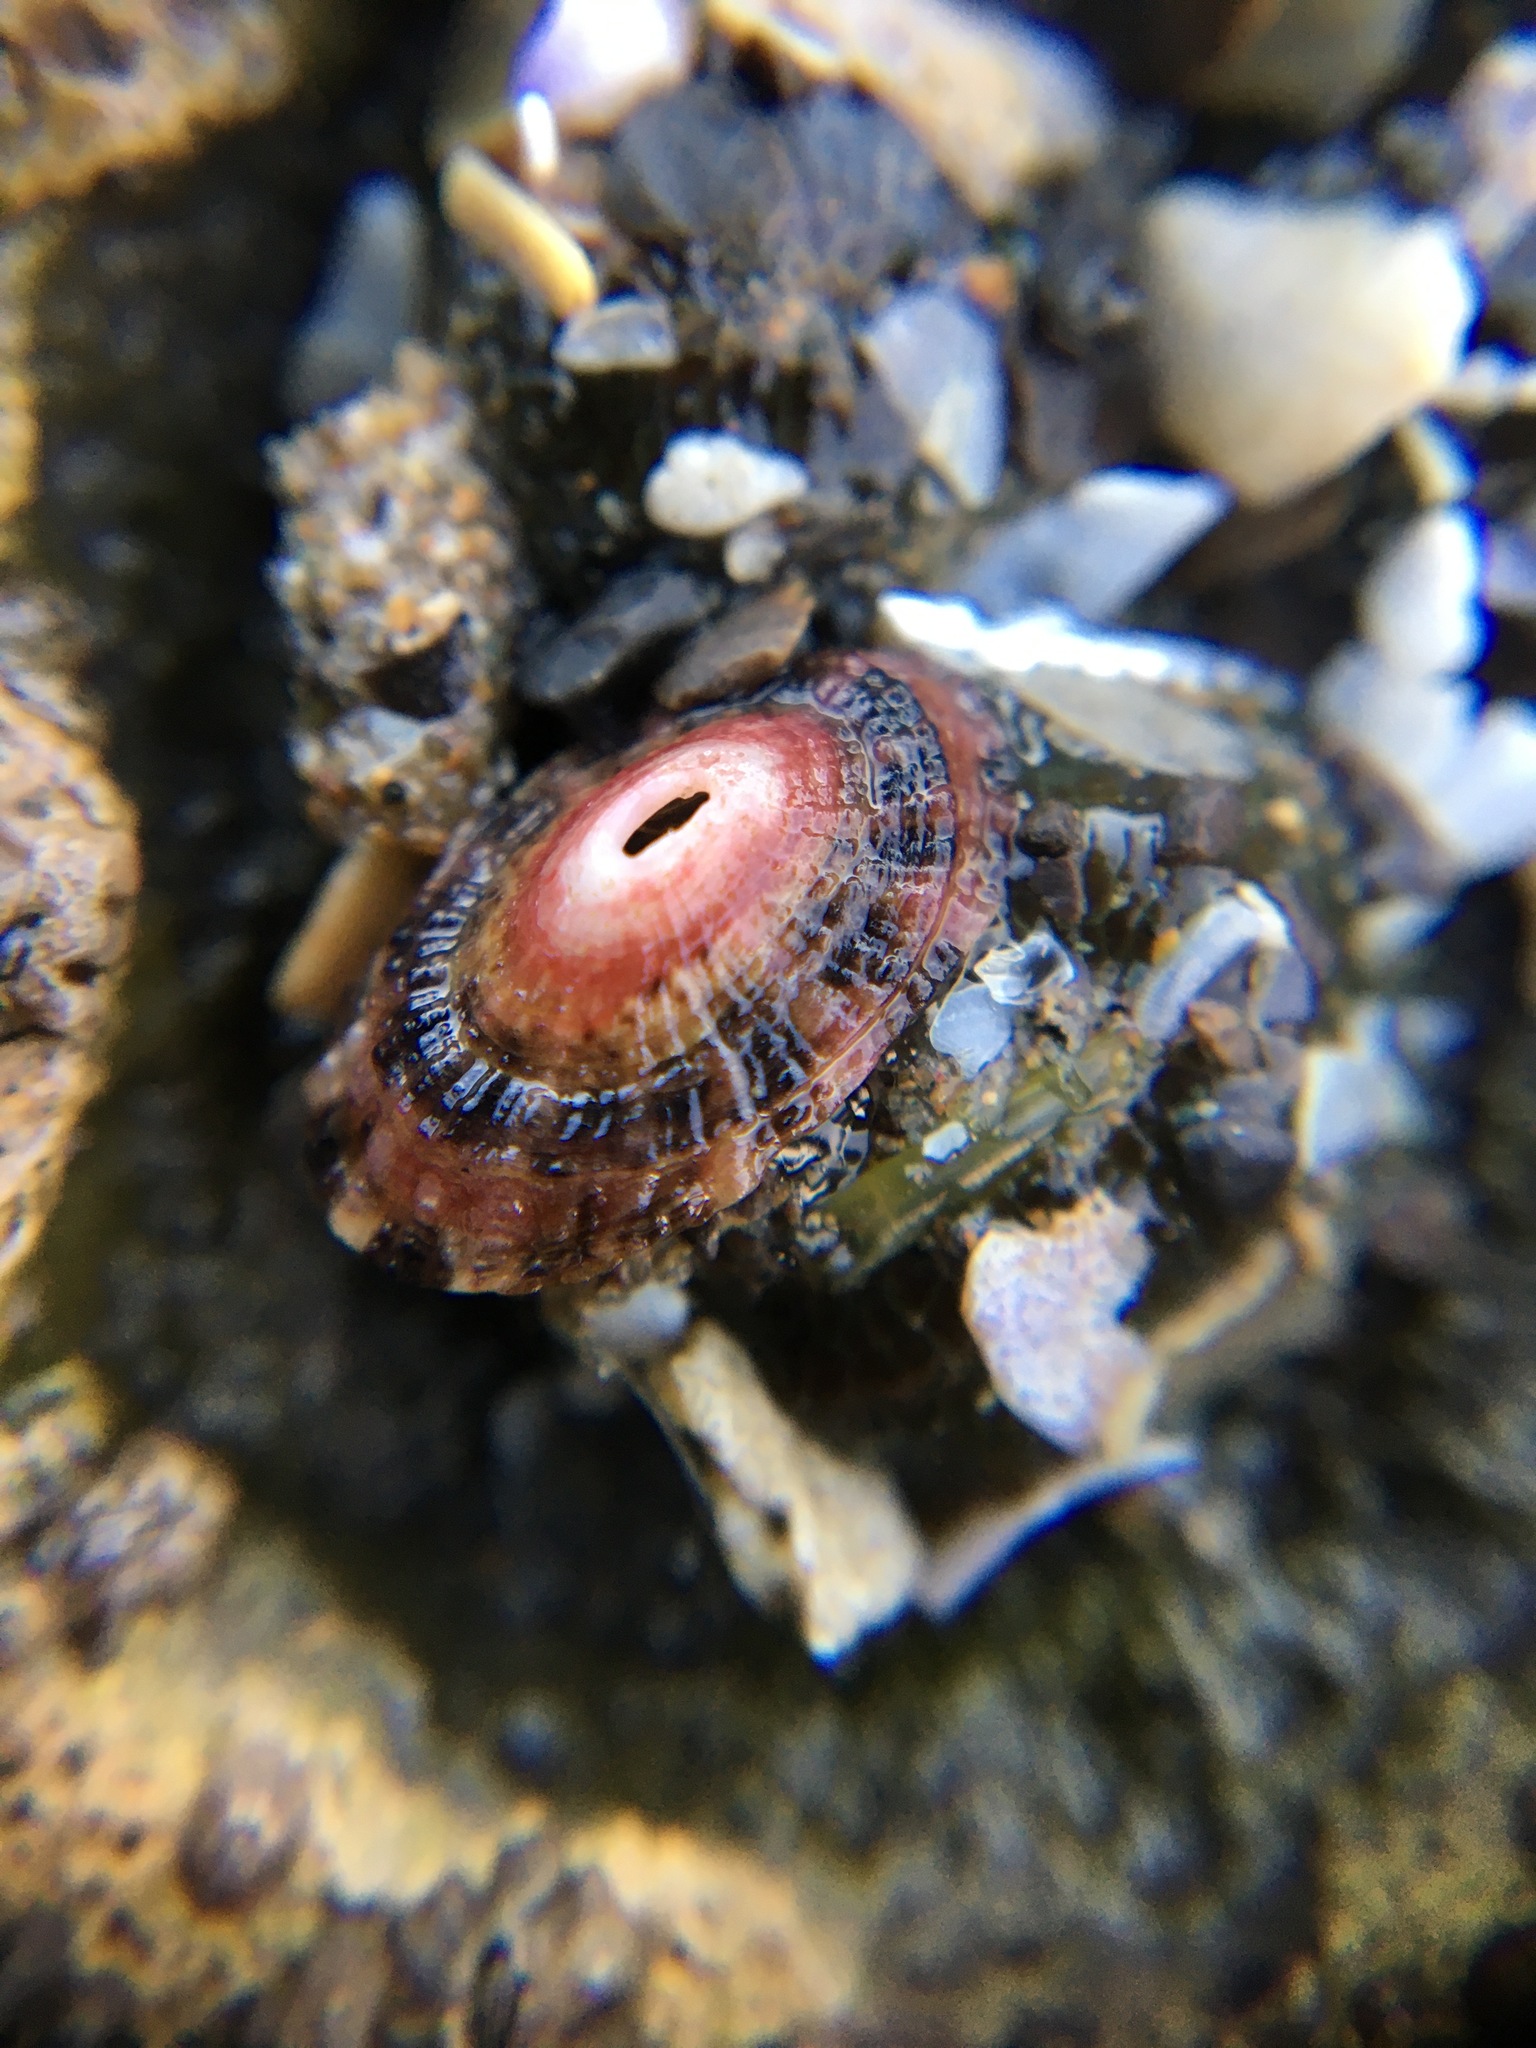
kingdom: Animalia
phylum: Mollusca
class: Gastropoda
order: Lepetellida
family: Fissurellidae
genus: Fissurella
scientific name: Fissurella volcano
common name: Volcano keyhole limpet
